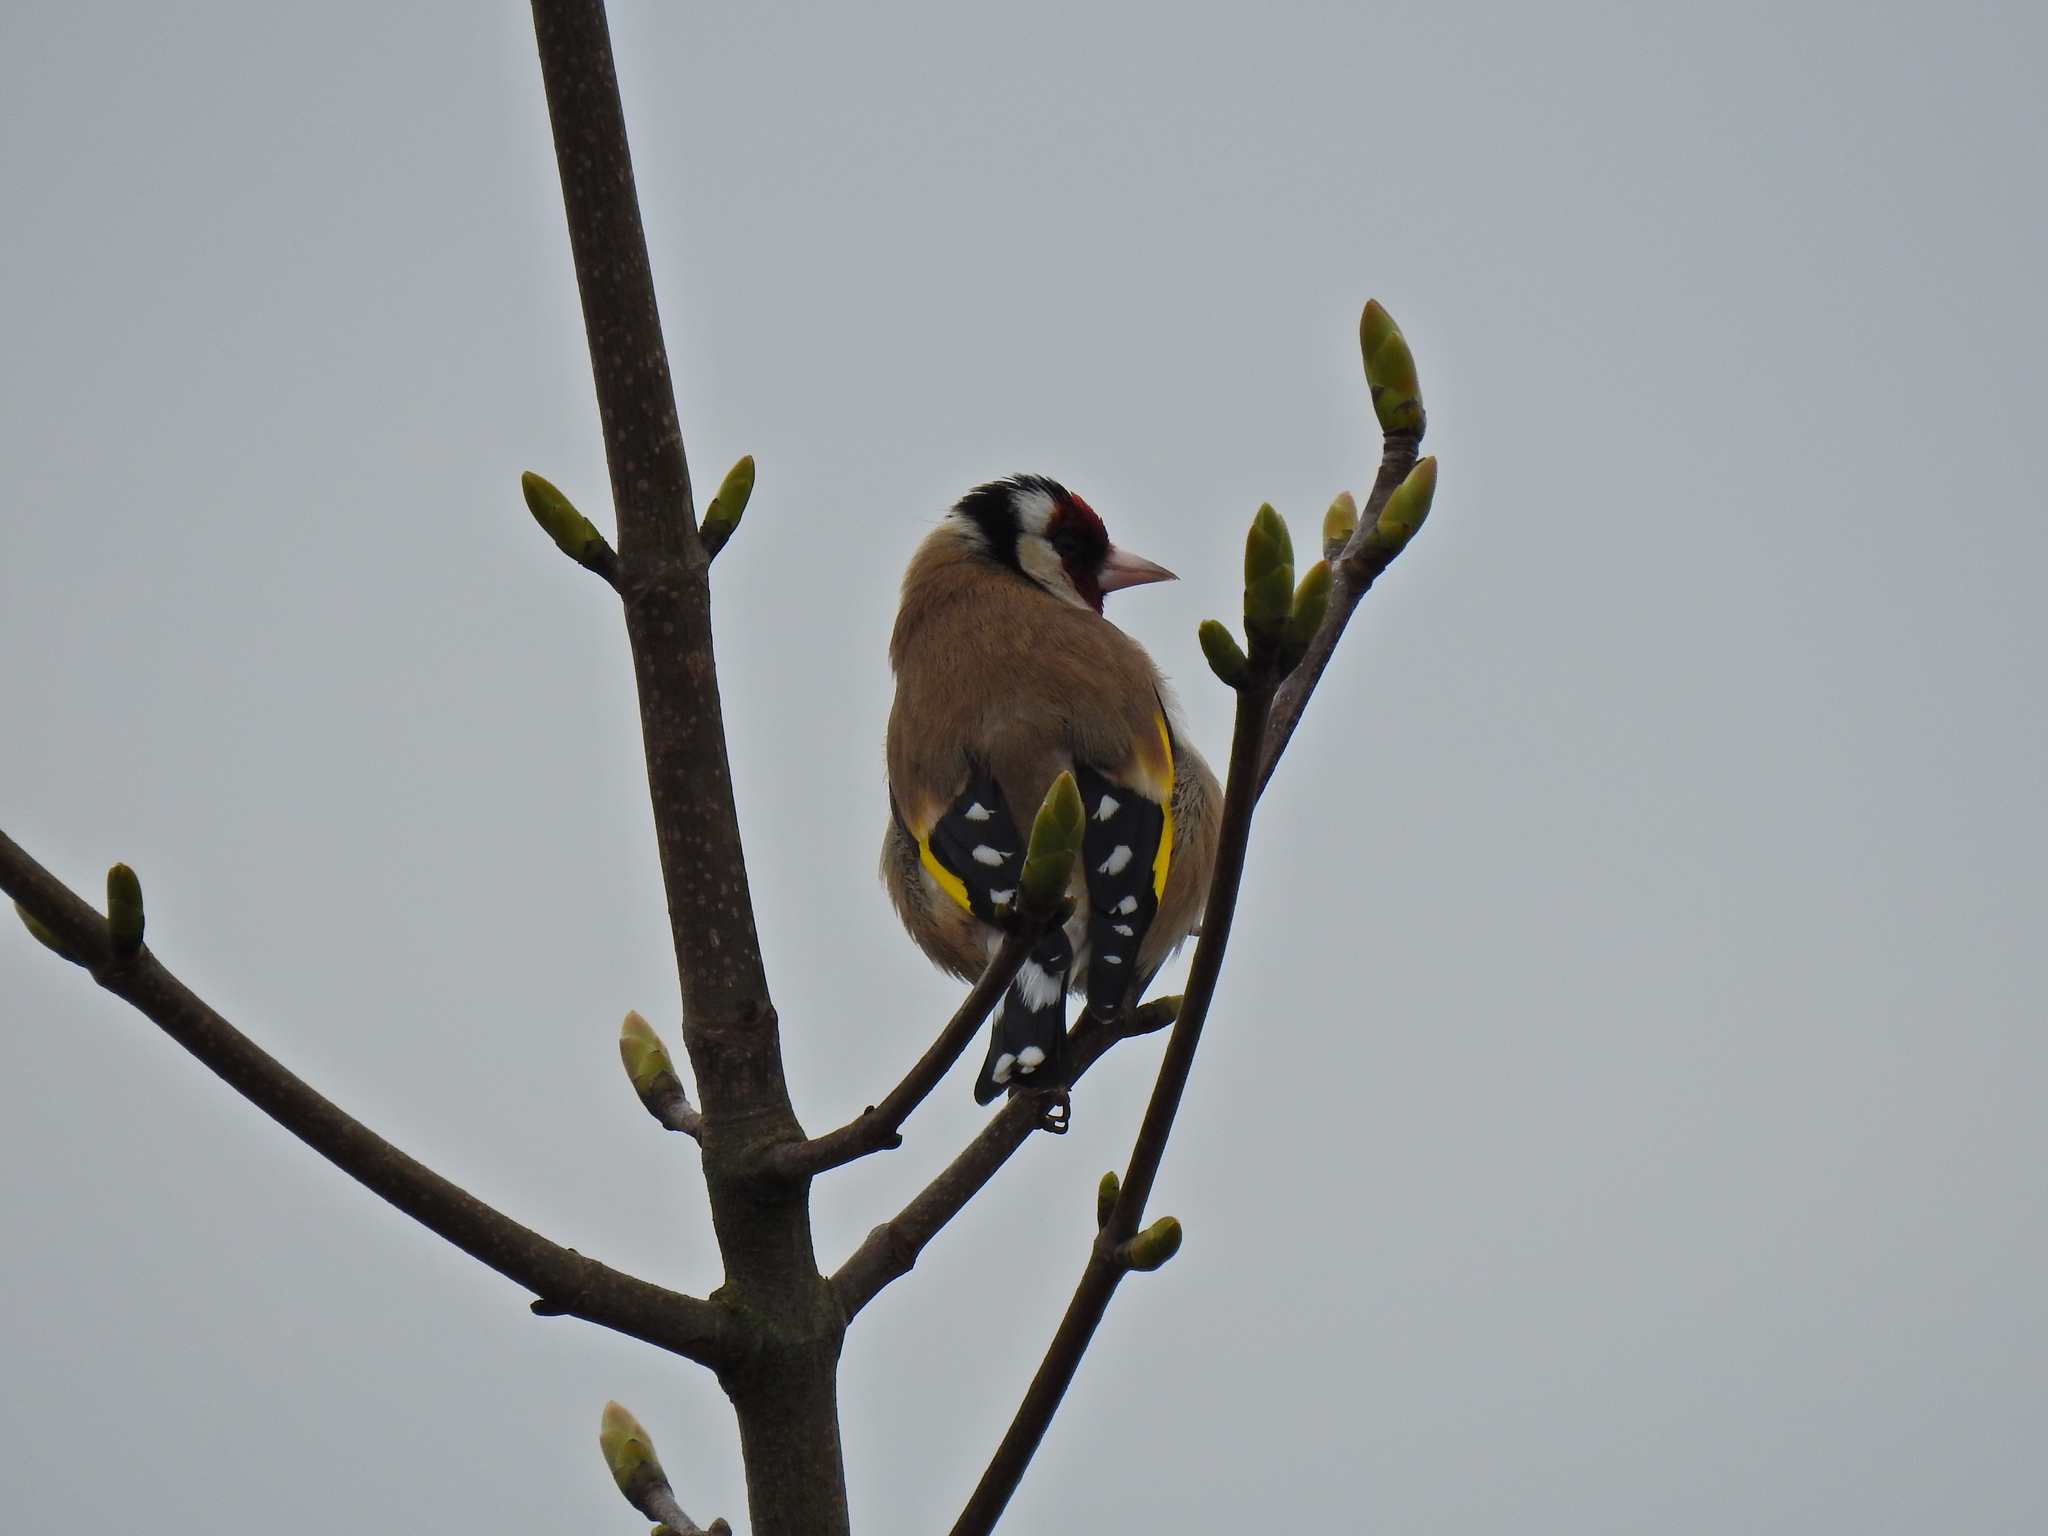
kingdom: Animalia
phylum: Chordata
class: Aves
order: Passeriformes
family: Fringillidae
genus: Carduelis
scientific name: Carduelis carduelis
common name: European goldfinch
